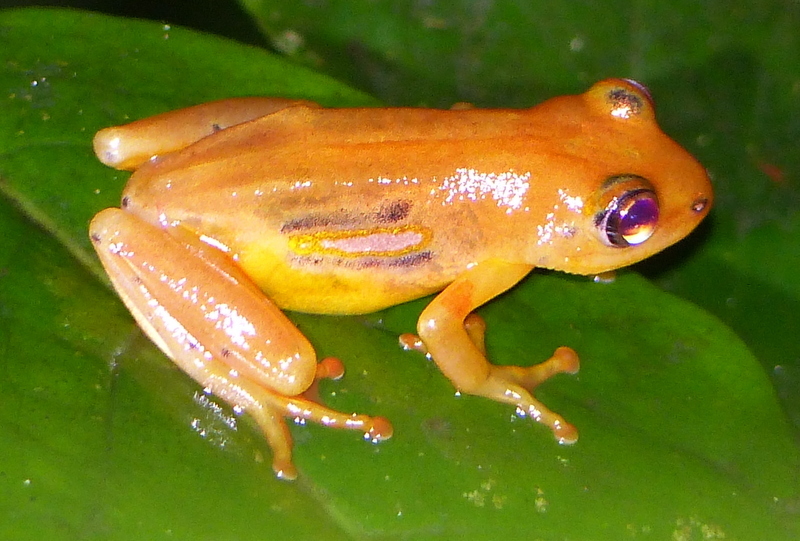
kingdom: Animalia
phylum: Chordata
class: Amphibia
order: Anura
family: Hyperoliidae
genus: Hyperolius
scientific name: Hyperolius substriatus
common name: Spotted reed frog
